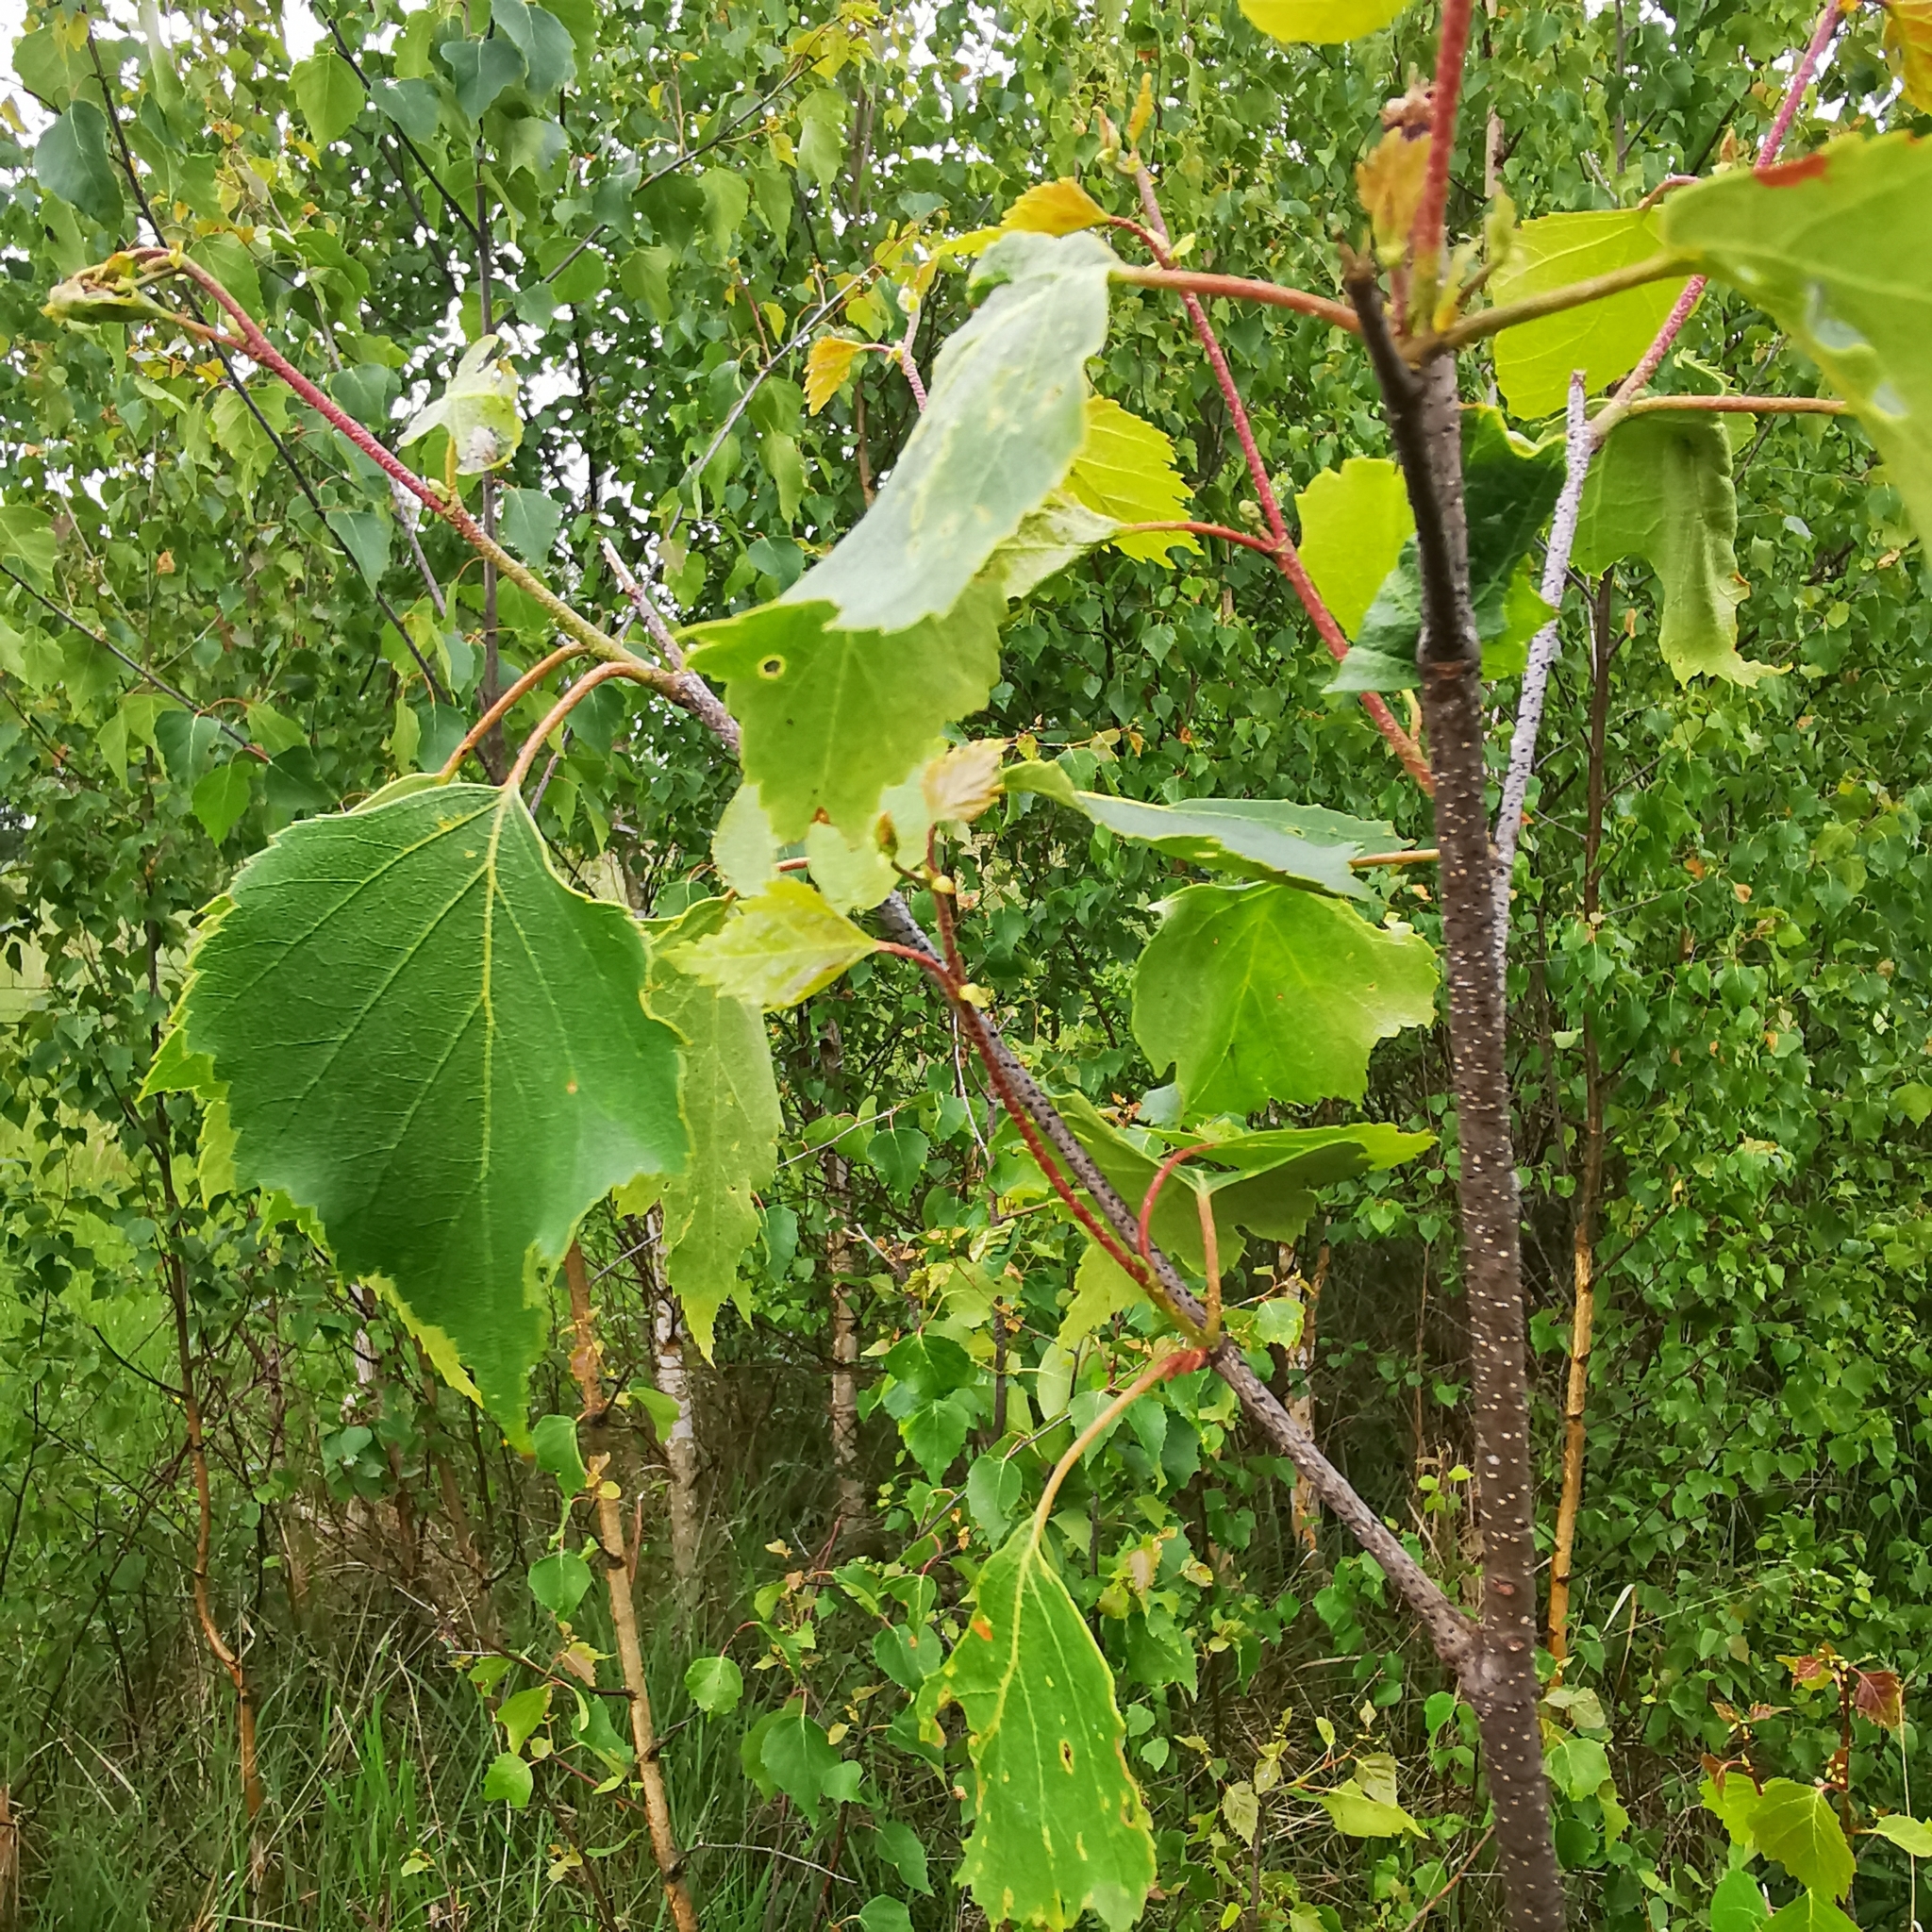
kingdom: Plantae
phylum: Tracheophyta
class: Magnoliopsida
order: Fagales
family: Betulaceae
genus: Betula
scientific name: Betula pendula
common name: Silver birch
